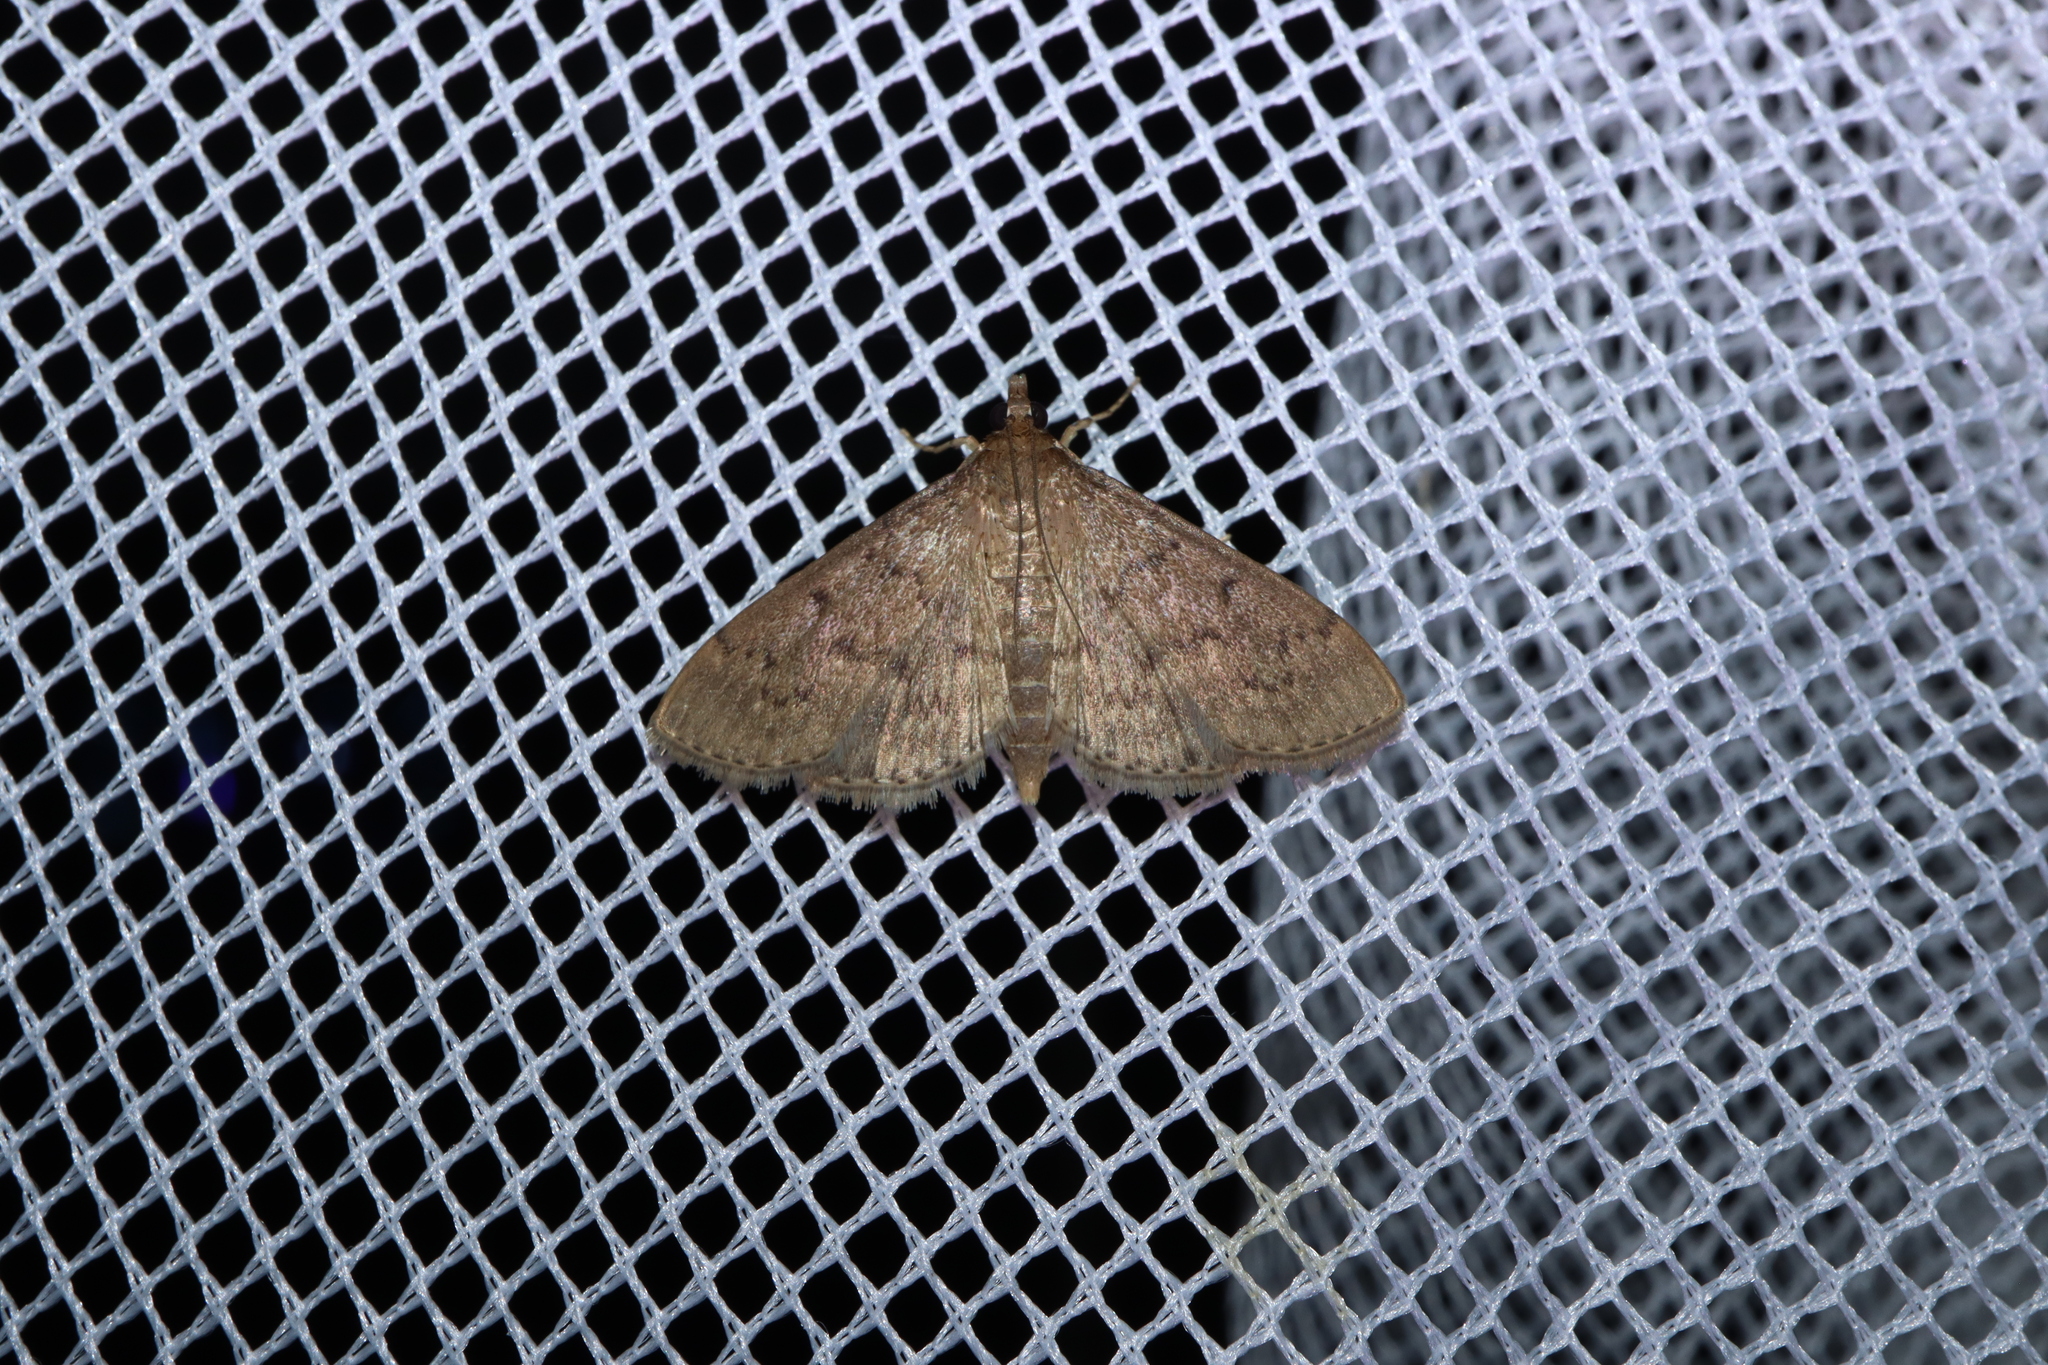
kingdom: Animalia
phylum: Arthropoda
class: Insecta
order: Lepidoptera
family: Crambidae
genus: Herpetogramma
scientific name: Herpetogramma licarsisalis
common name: Grass webworm
